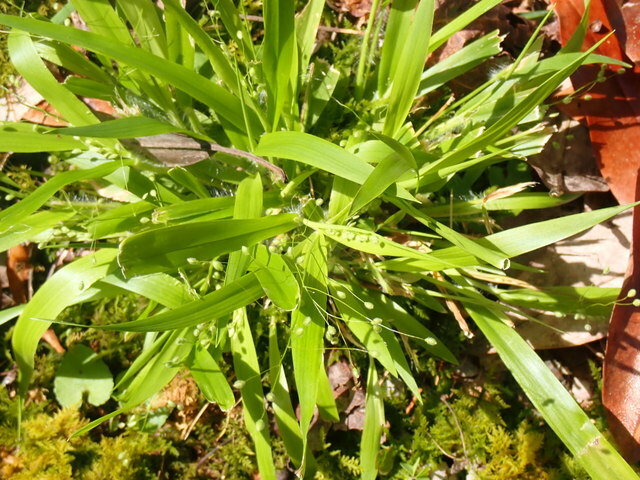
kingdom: Plantae
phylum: Tracheophyta
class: Liliopsida
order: Poales
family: Poaceae
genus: Dichanthelium
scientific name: Dichanthelium laxiflorum
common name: Soft-tuft panic grass
